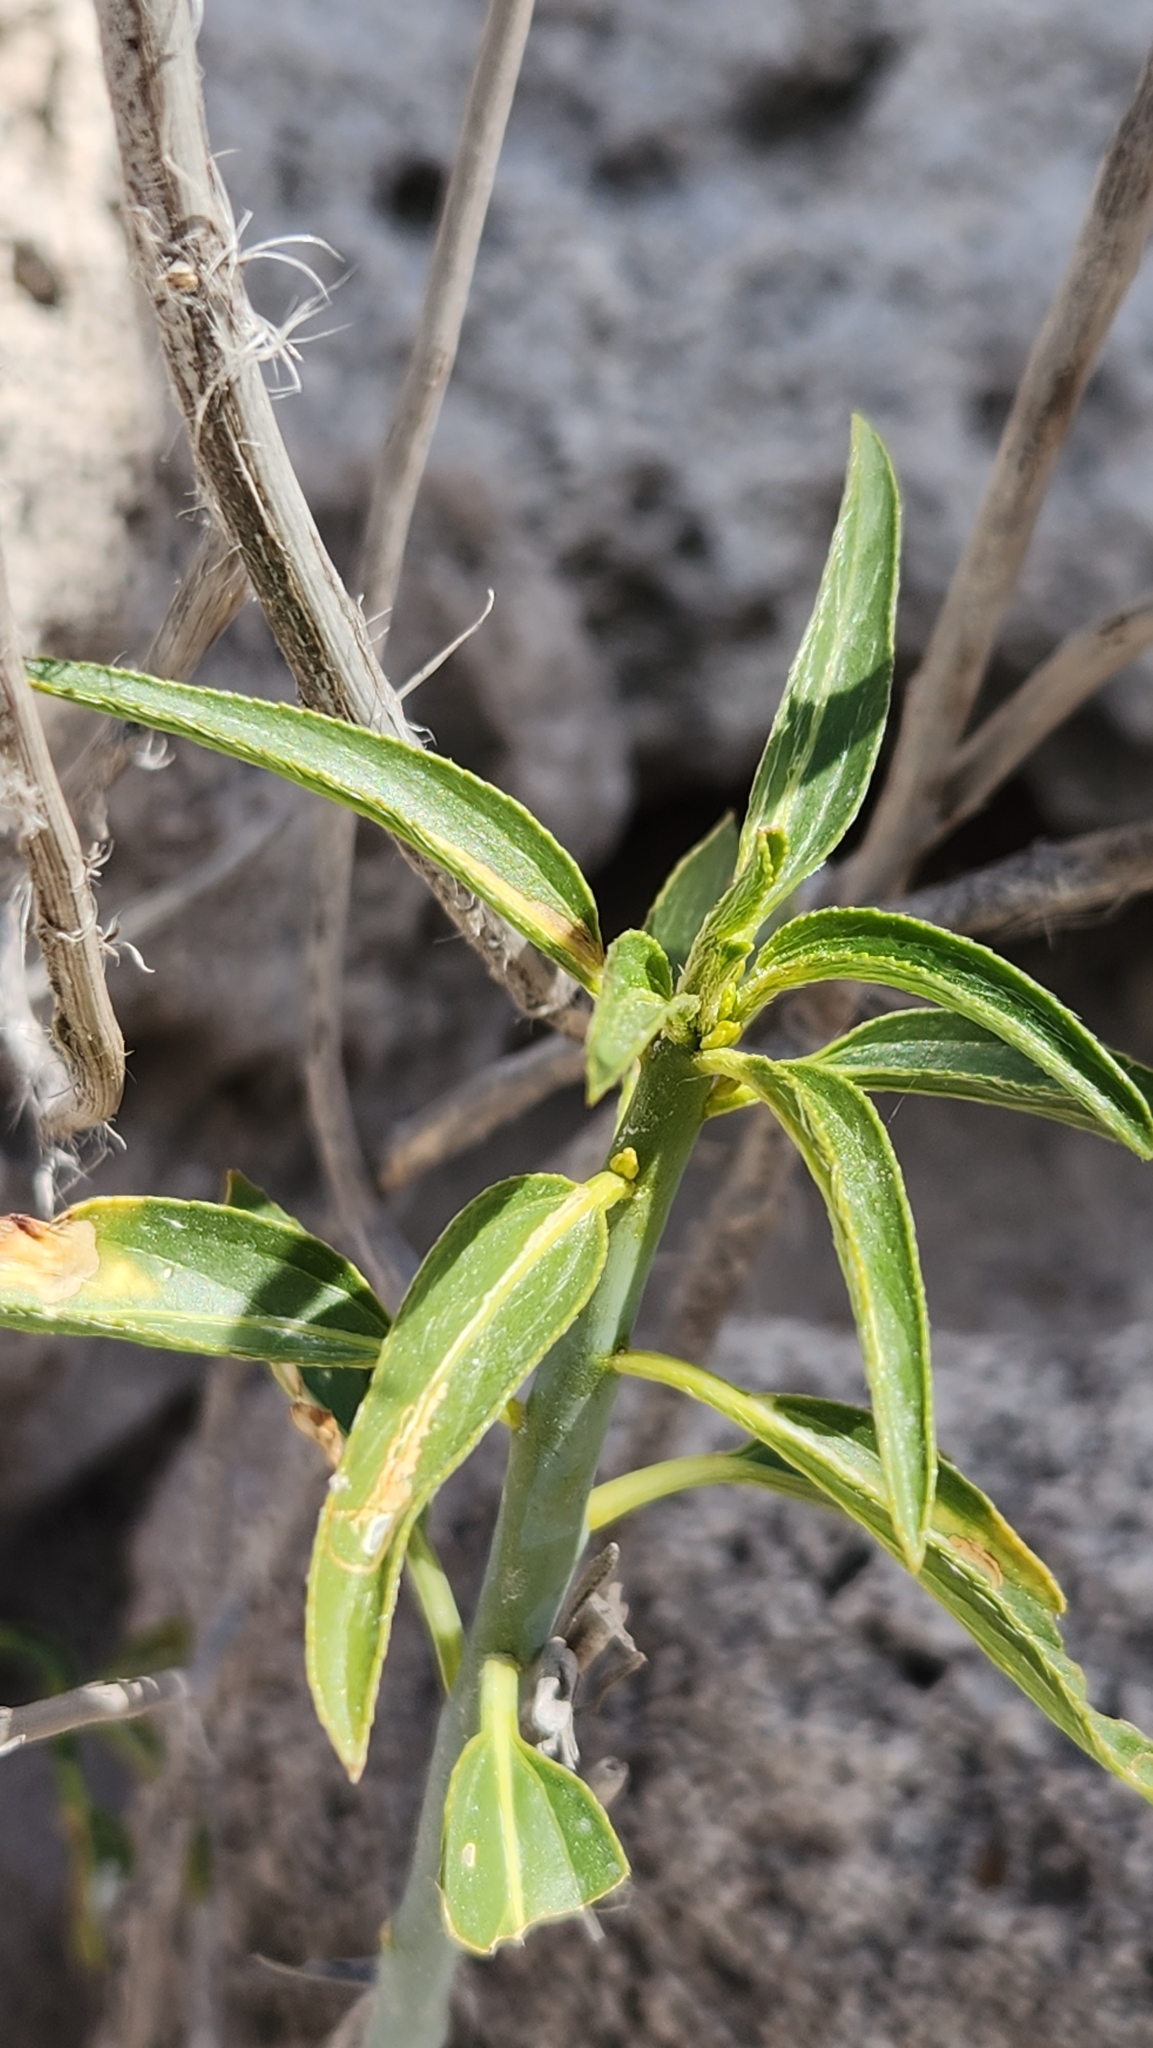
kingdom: Plantae
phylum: Tracheophyta
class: Magnoliopsida
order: Malpighiales
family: Euphorbiaceae
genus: Ditaxis
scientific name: Ditaxis brandegeei
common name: Sonoran silverbush
